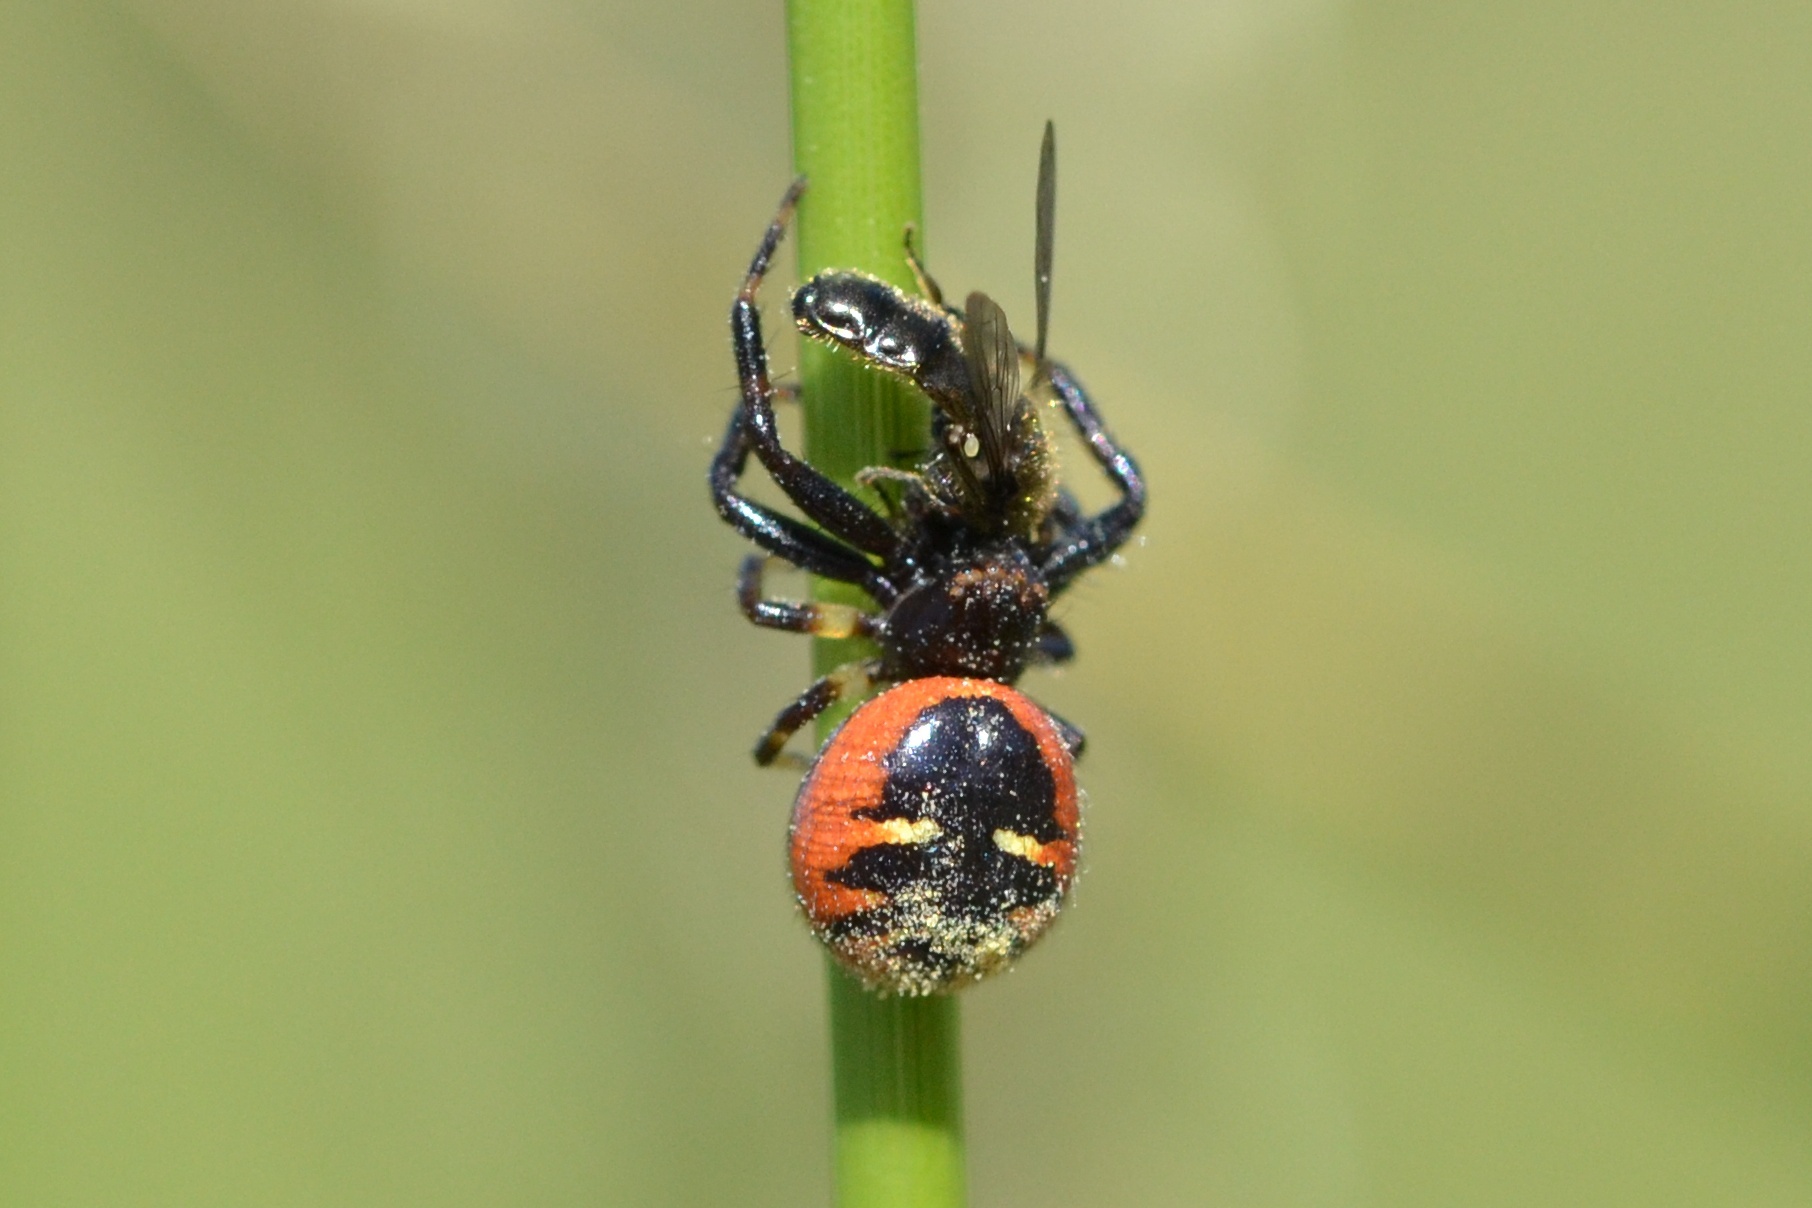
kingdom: Animalia
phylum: Arthropoda
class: Arachnida
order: Araneae
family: Thomisidae
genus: Synema
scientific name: Synema globosum
